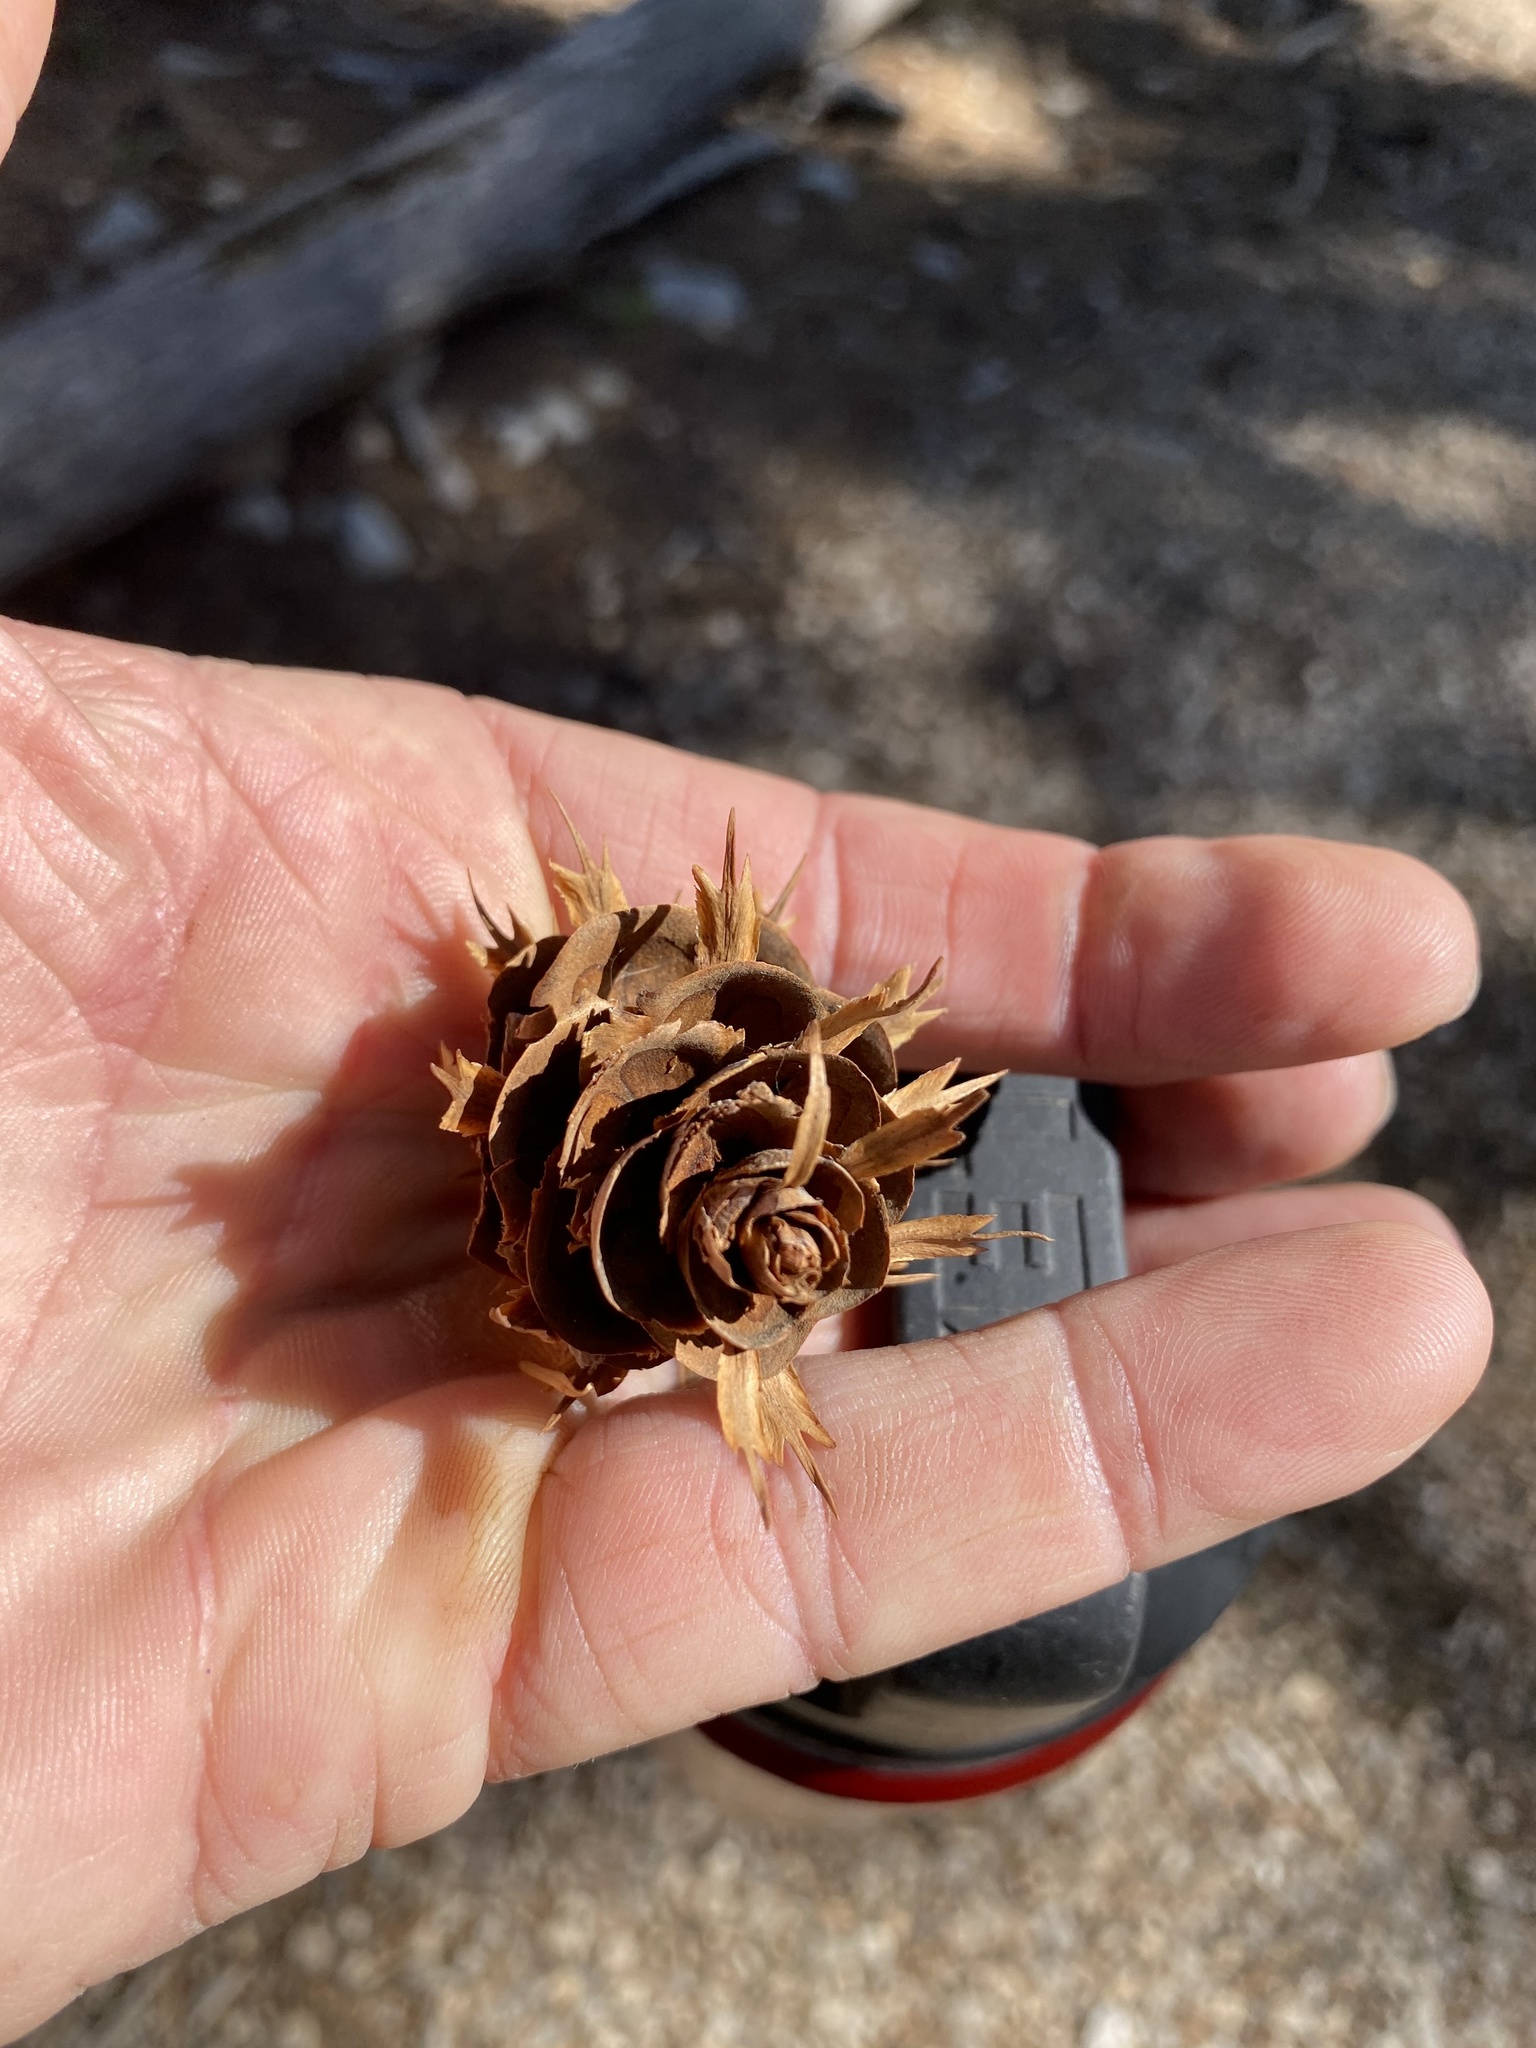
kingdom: Plantae
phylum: Tracheophyta
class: Pinopsida
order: Pinales
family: Pinaceae
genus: Pseudotsuga
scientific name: Pseudotsuga menziesii
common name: Douglas fir
